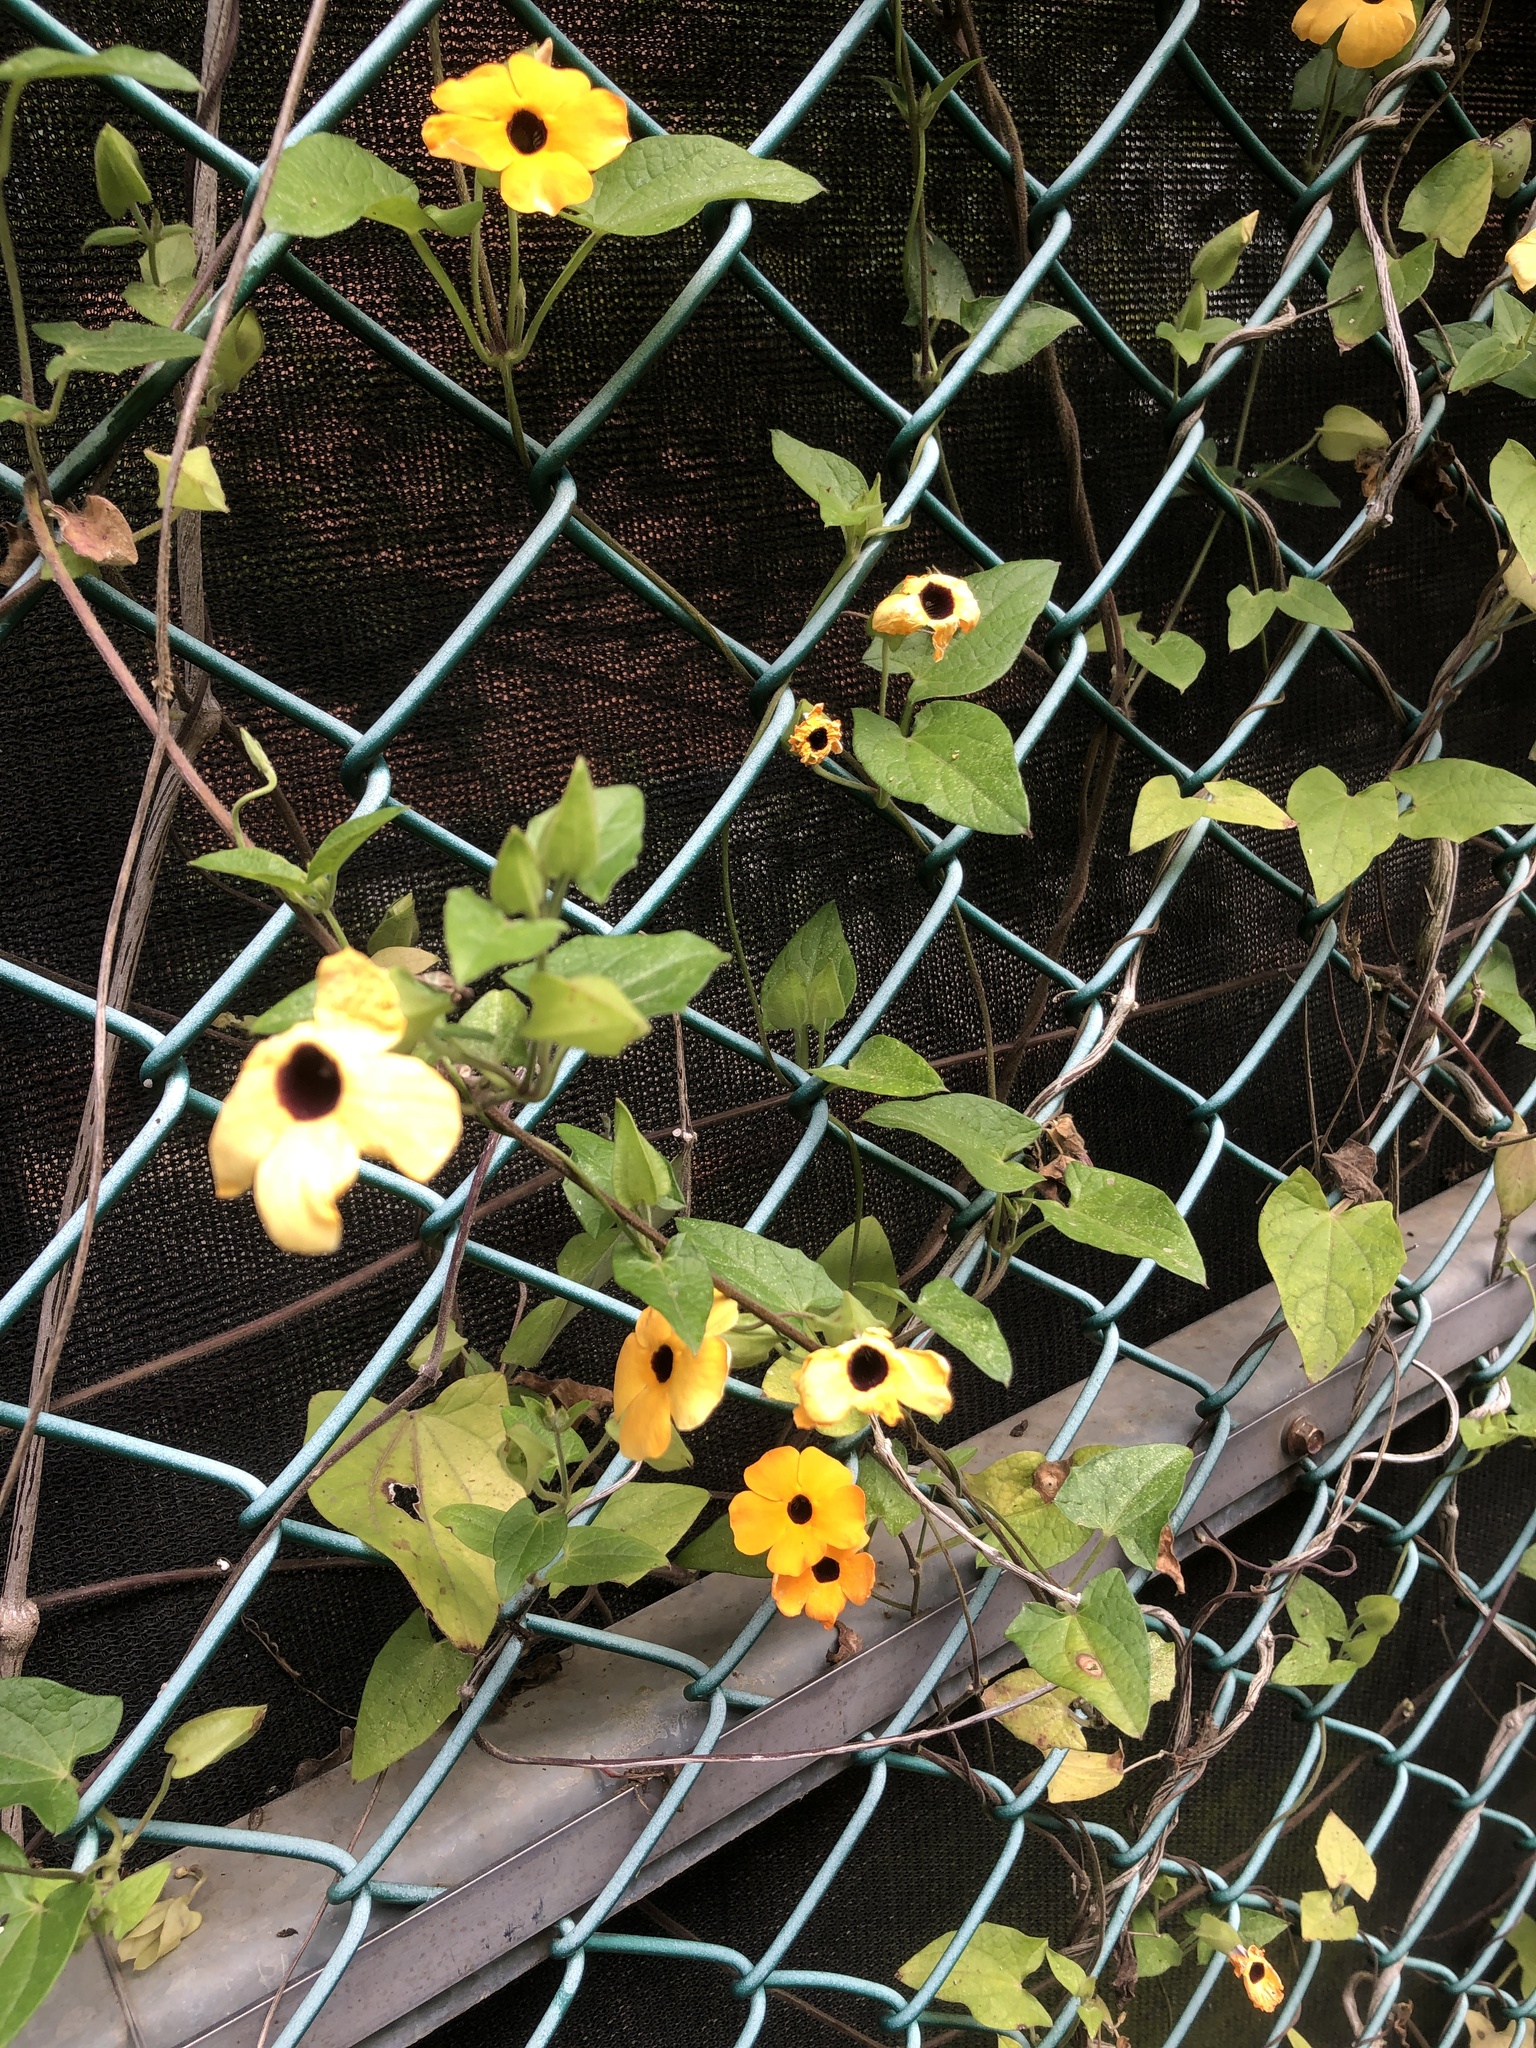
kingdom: Plantae
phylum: Tracheophyta
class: Magnoliopsida
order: Lamiales
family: Acanthaceae
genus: Thunbergia
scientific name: Thunbergia alata
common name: Blackeyed susan vine
